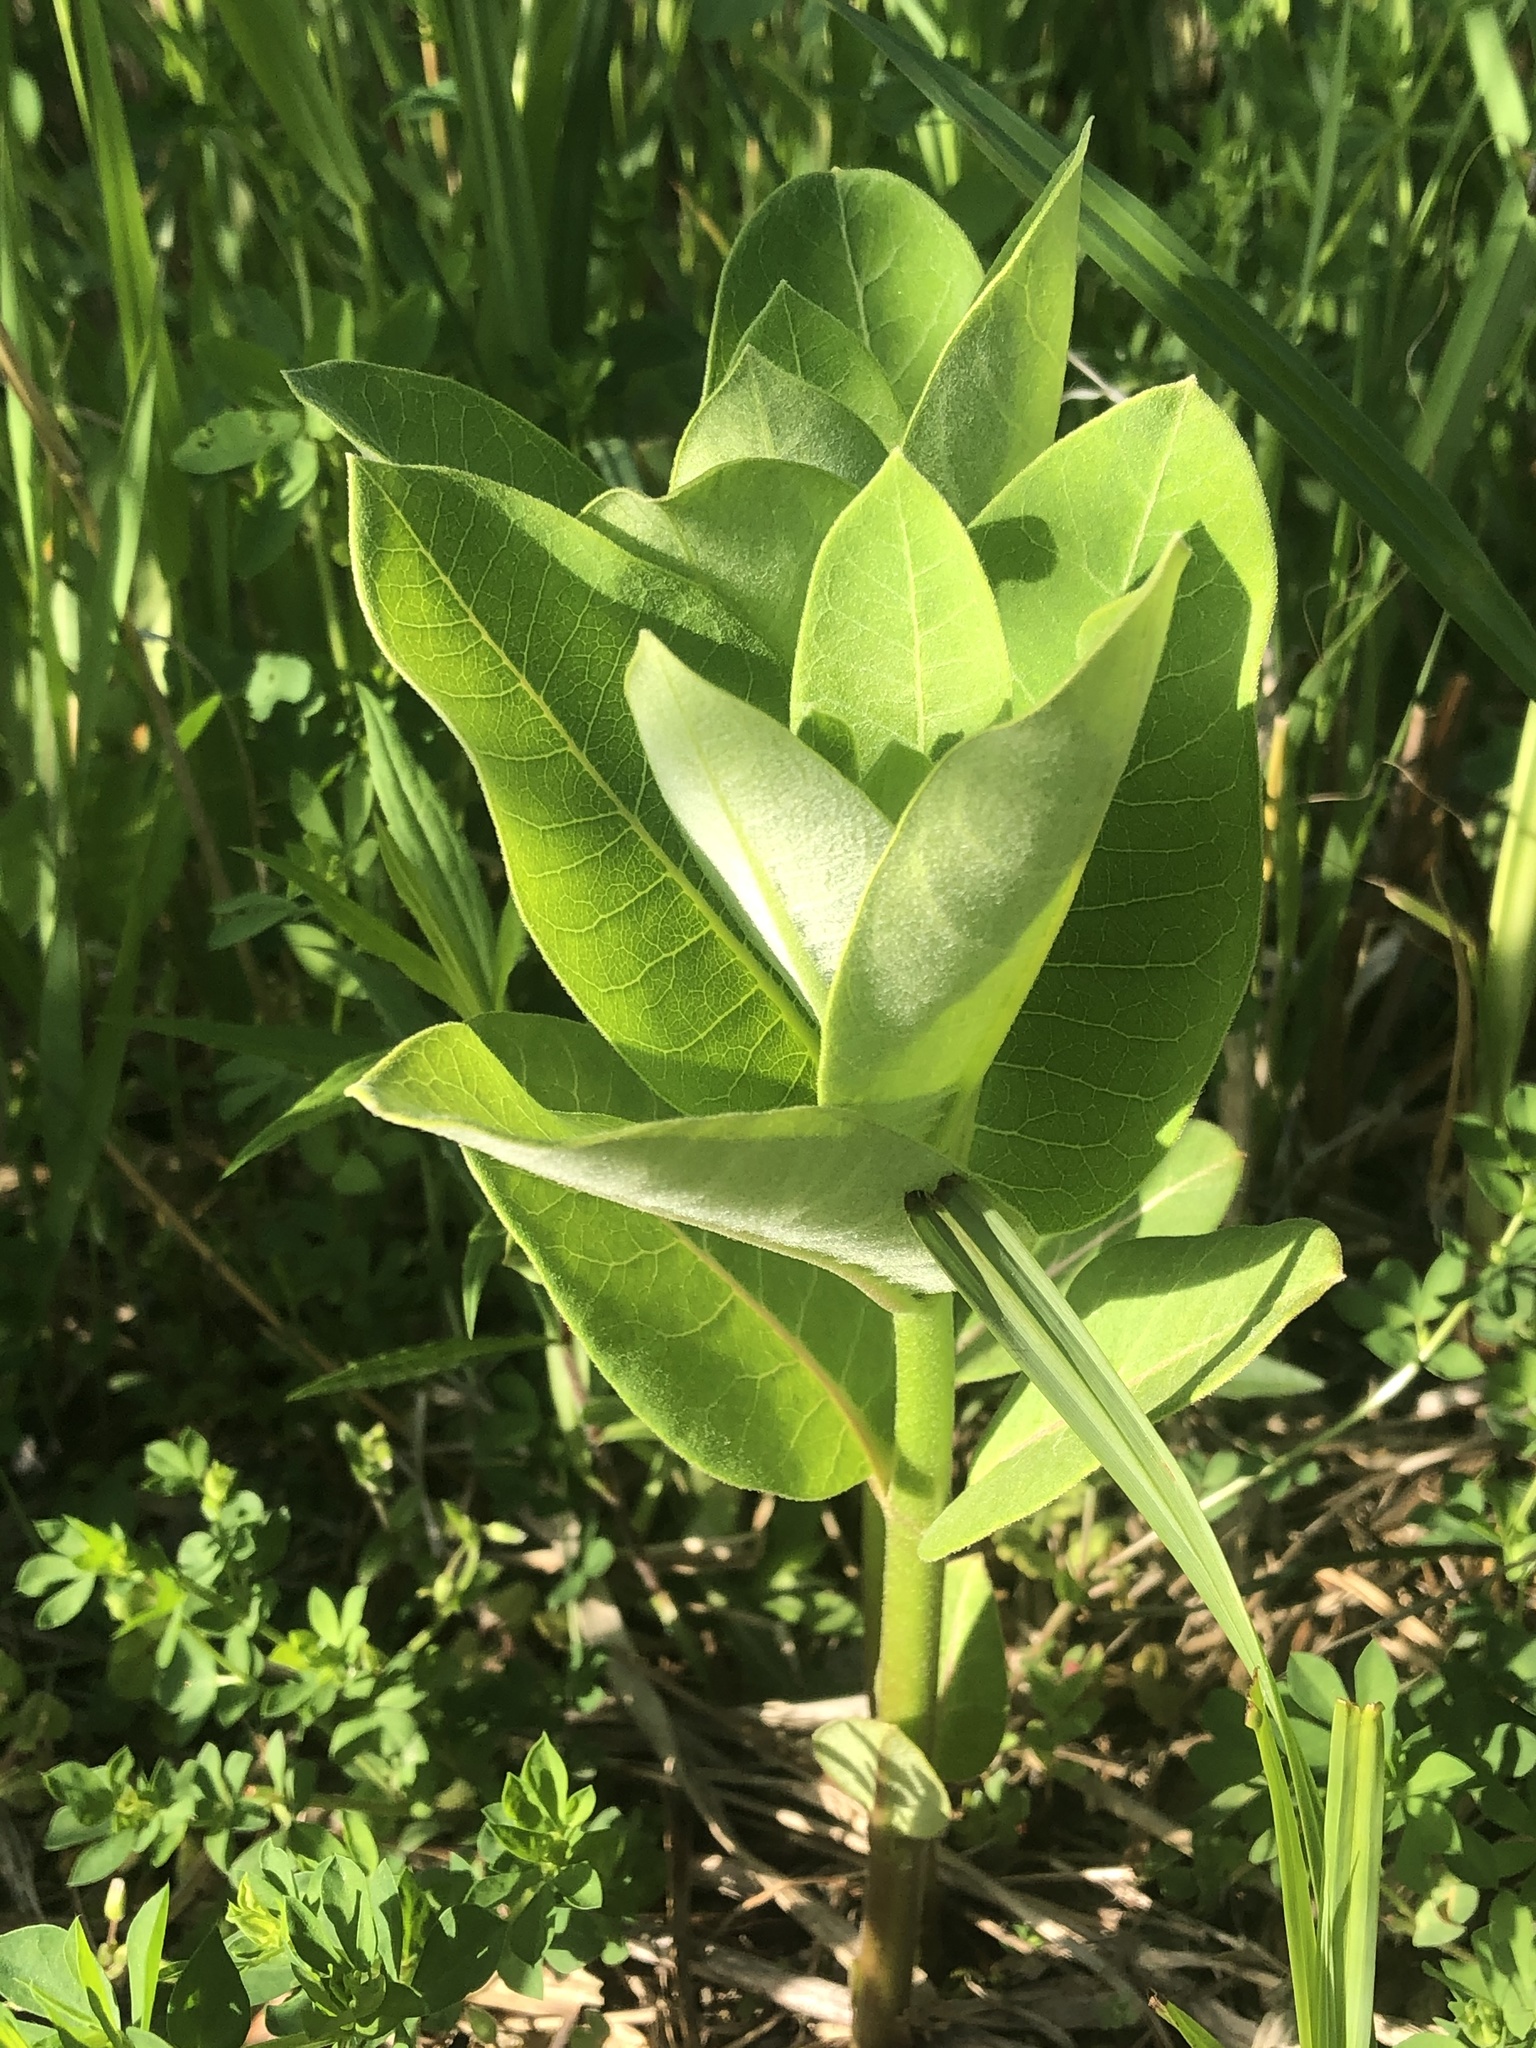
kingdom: Plantae
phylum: Tracheophyta
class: Magnoliopsida
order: Gentianales
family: Apocynaceae
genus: Asclepias
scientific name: Asclepias syriaca
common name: Common milkweed
